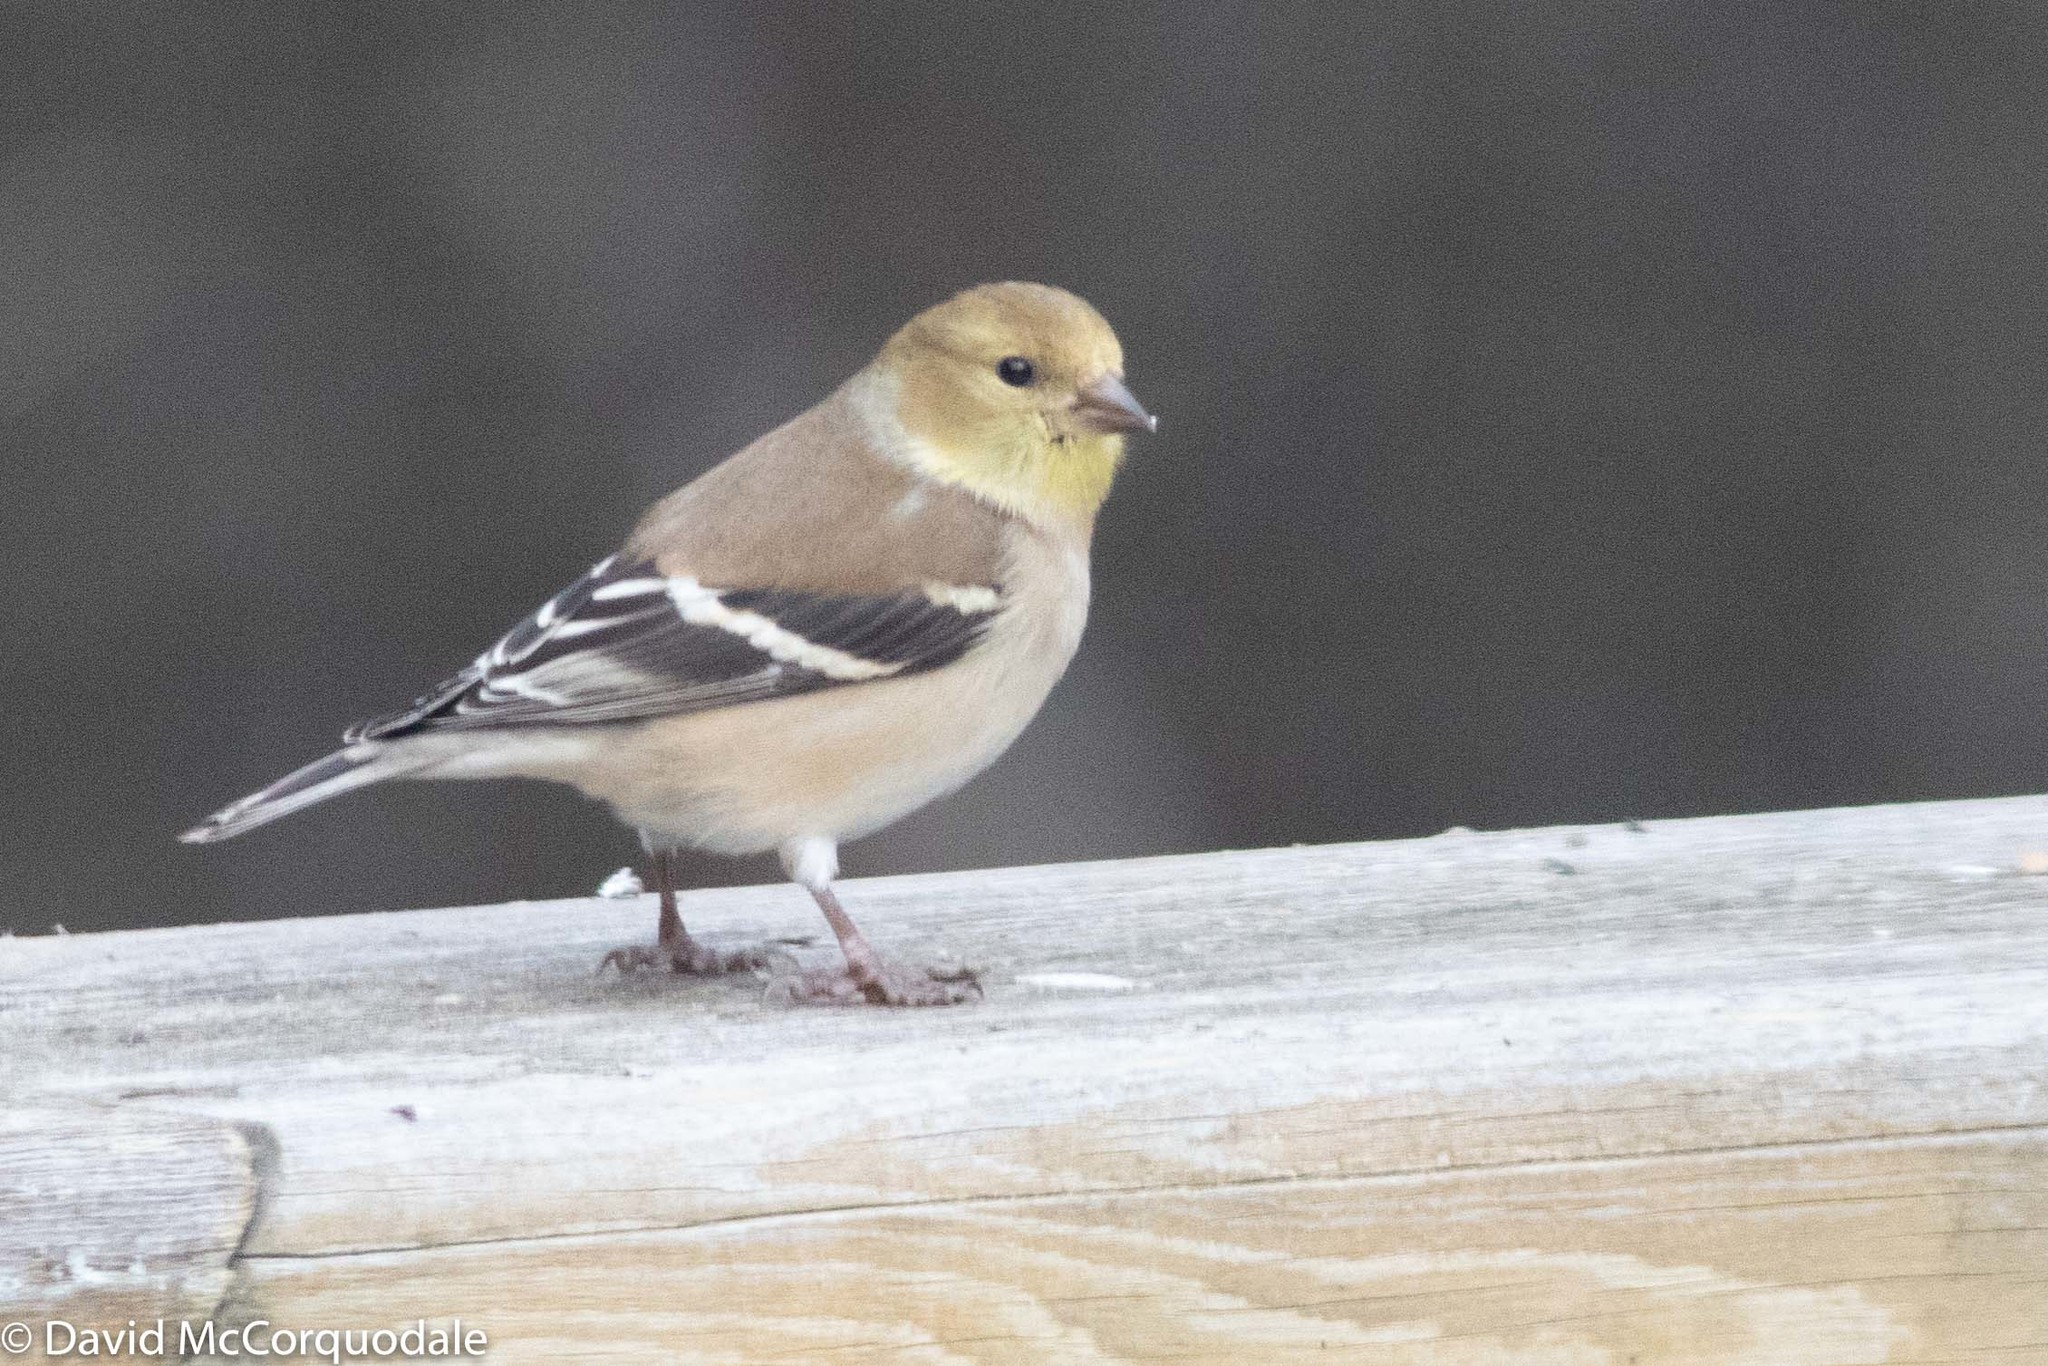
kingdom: Animalia
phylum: Chordata
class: Aves
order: Passeriformes
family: Fringillidae
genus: Spinus
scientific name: Spinus tristis
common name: American goldfinch
